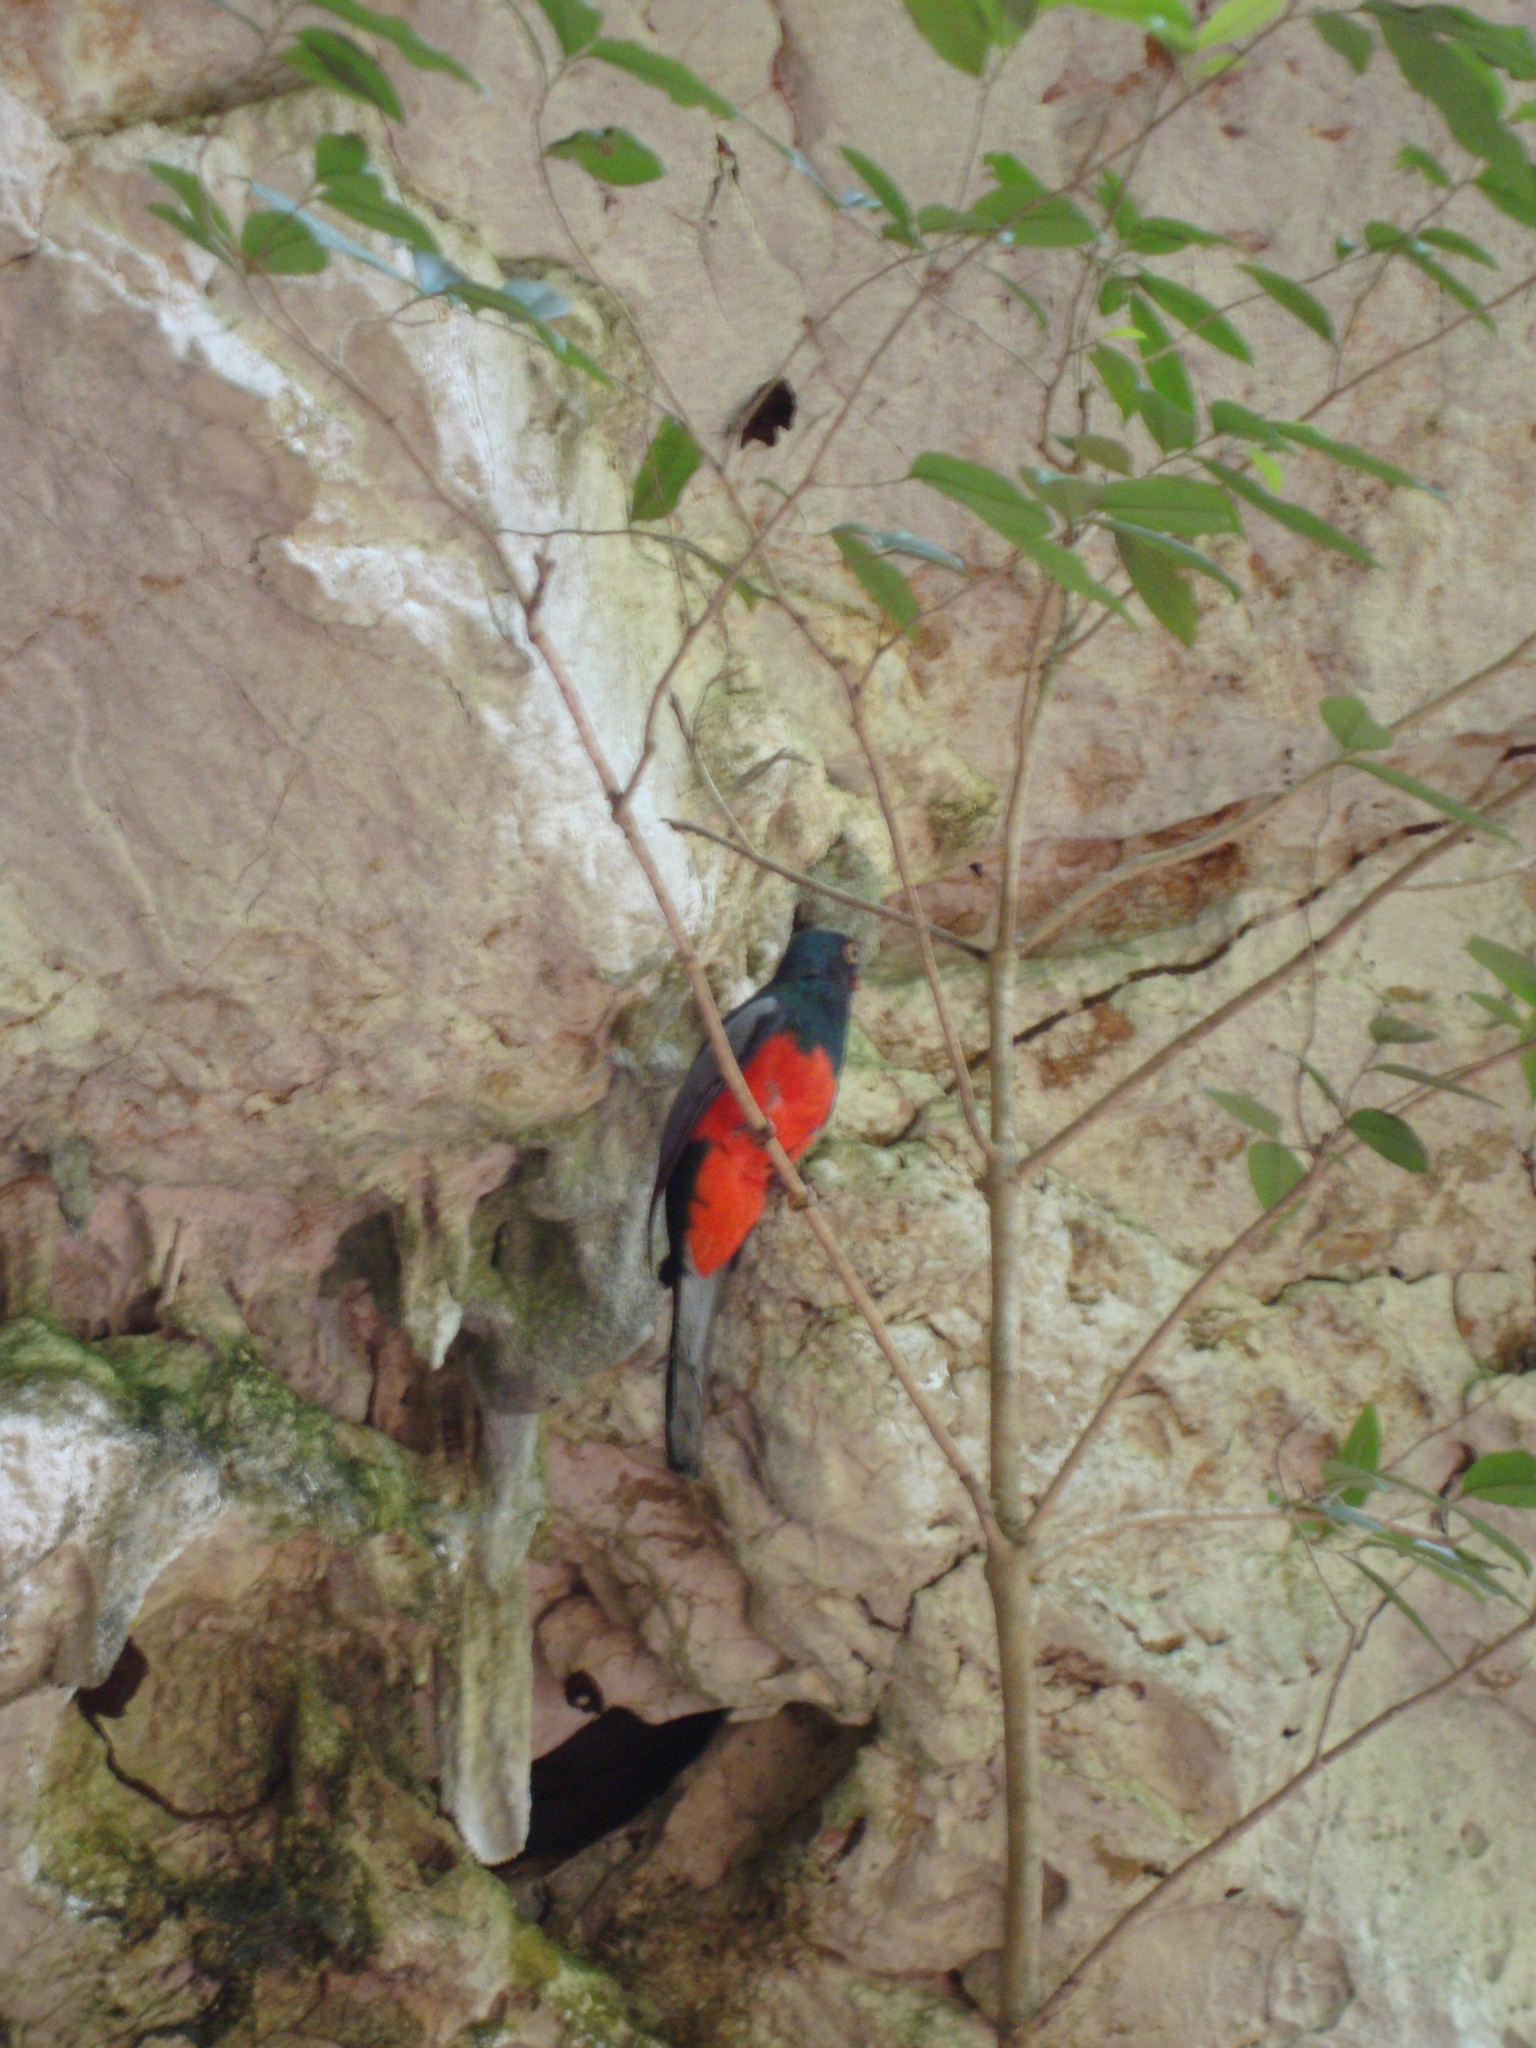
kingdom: Animalia
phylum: Chordata
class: Aves
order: Trogoniformes
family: Trogonidae
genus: Trogon
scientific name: Trogon massena
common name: Slaty-tailed trogon
